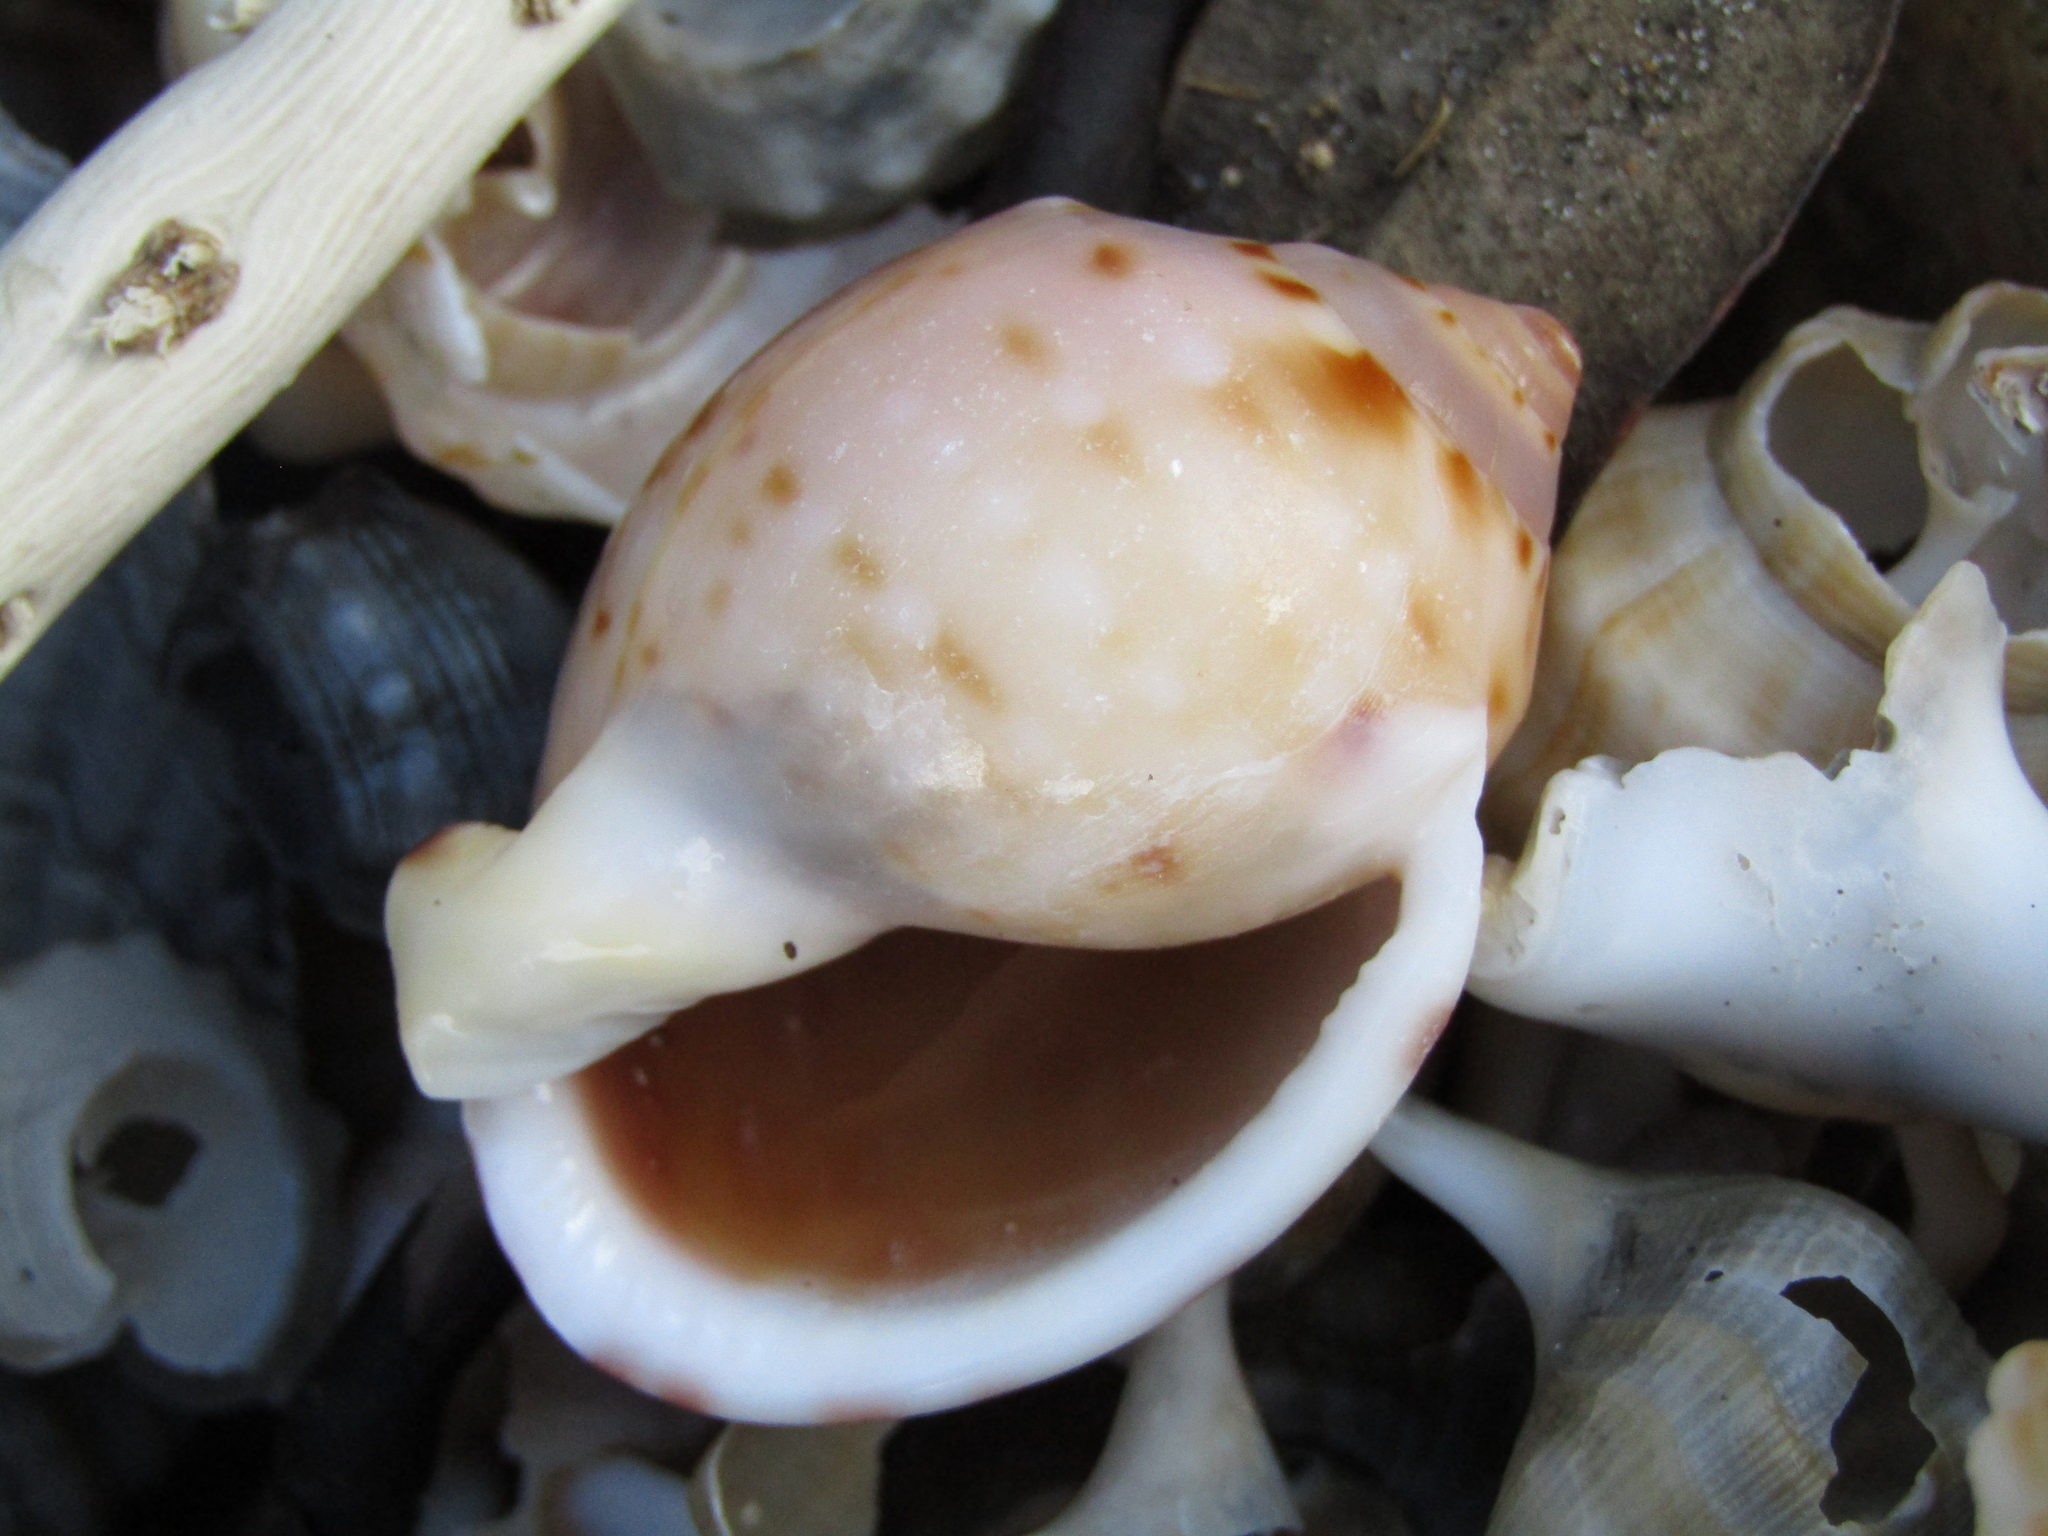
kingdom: Animalia
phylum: Mollusca
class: Gastropoda
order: Littorinimorpha
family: Cassidae
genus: Semicassis
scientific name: Semicassis labiata
